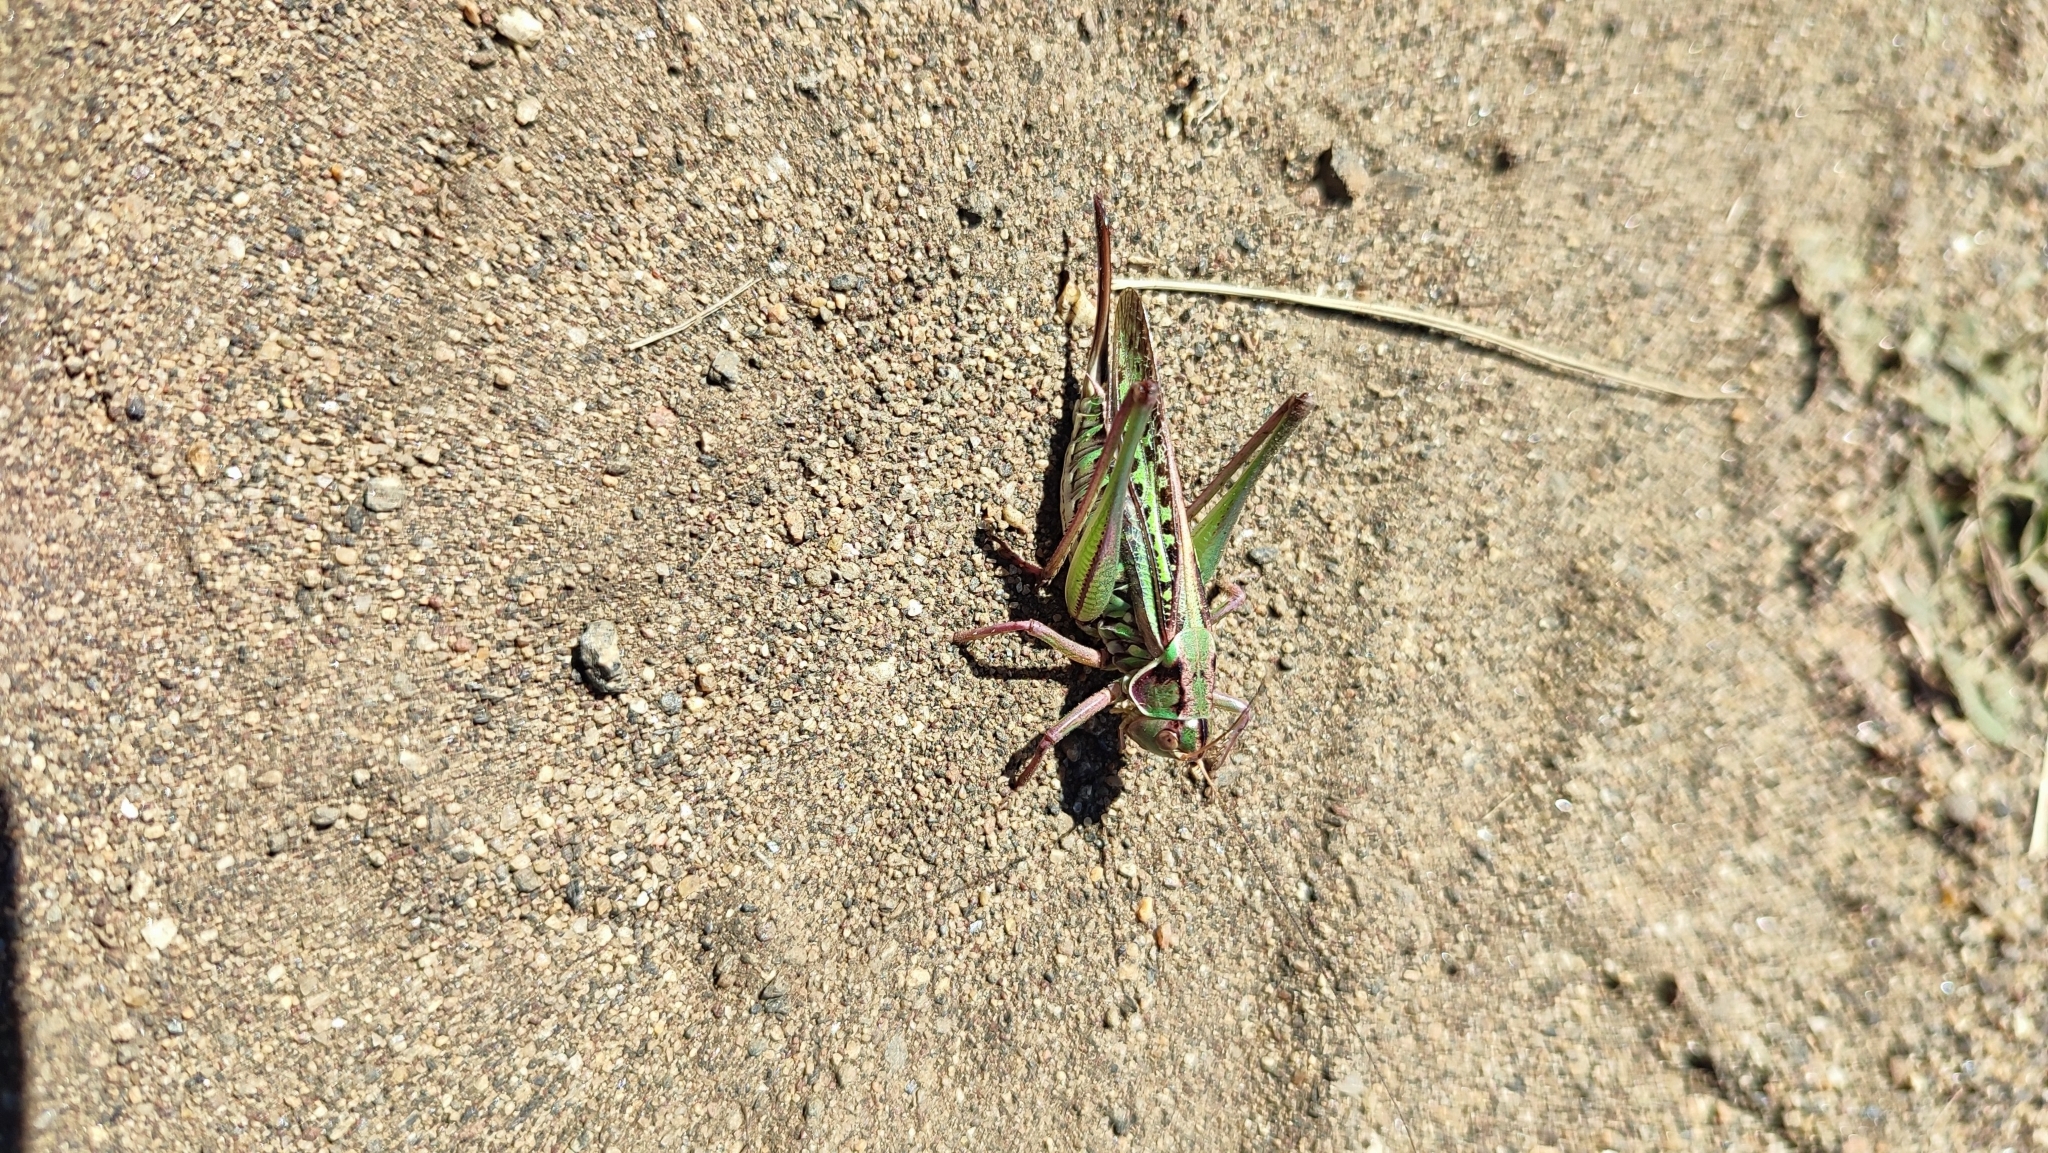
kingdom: Animalia
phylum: Arthropoda
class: Insecta
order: Orthoptera
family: Tettigoniidae
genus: Gampsocleis
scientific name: Gampsocleis sedakovii
